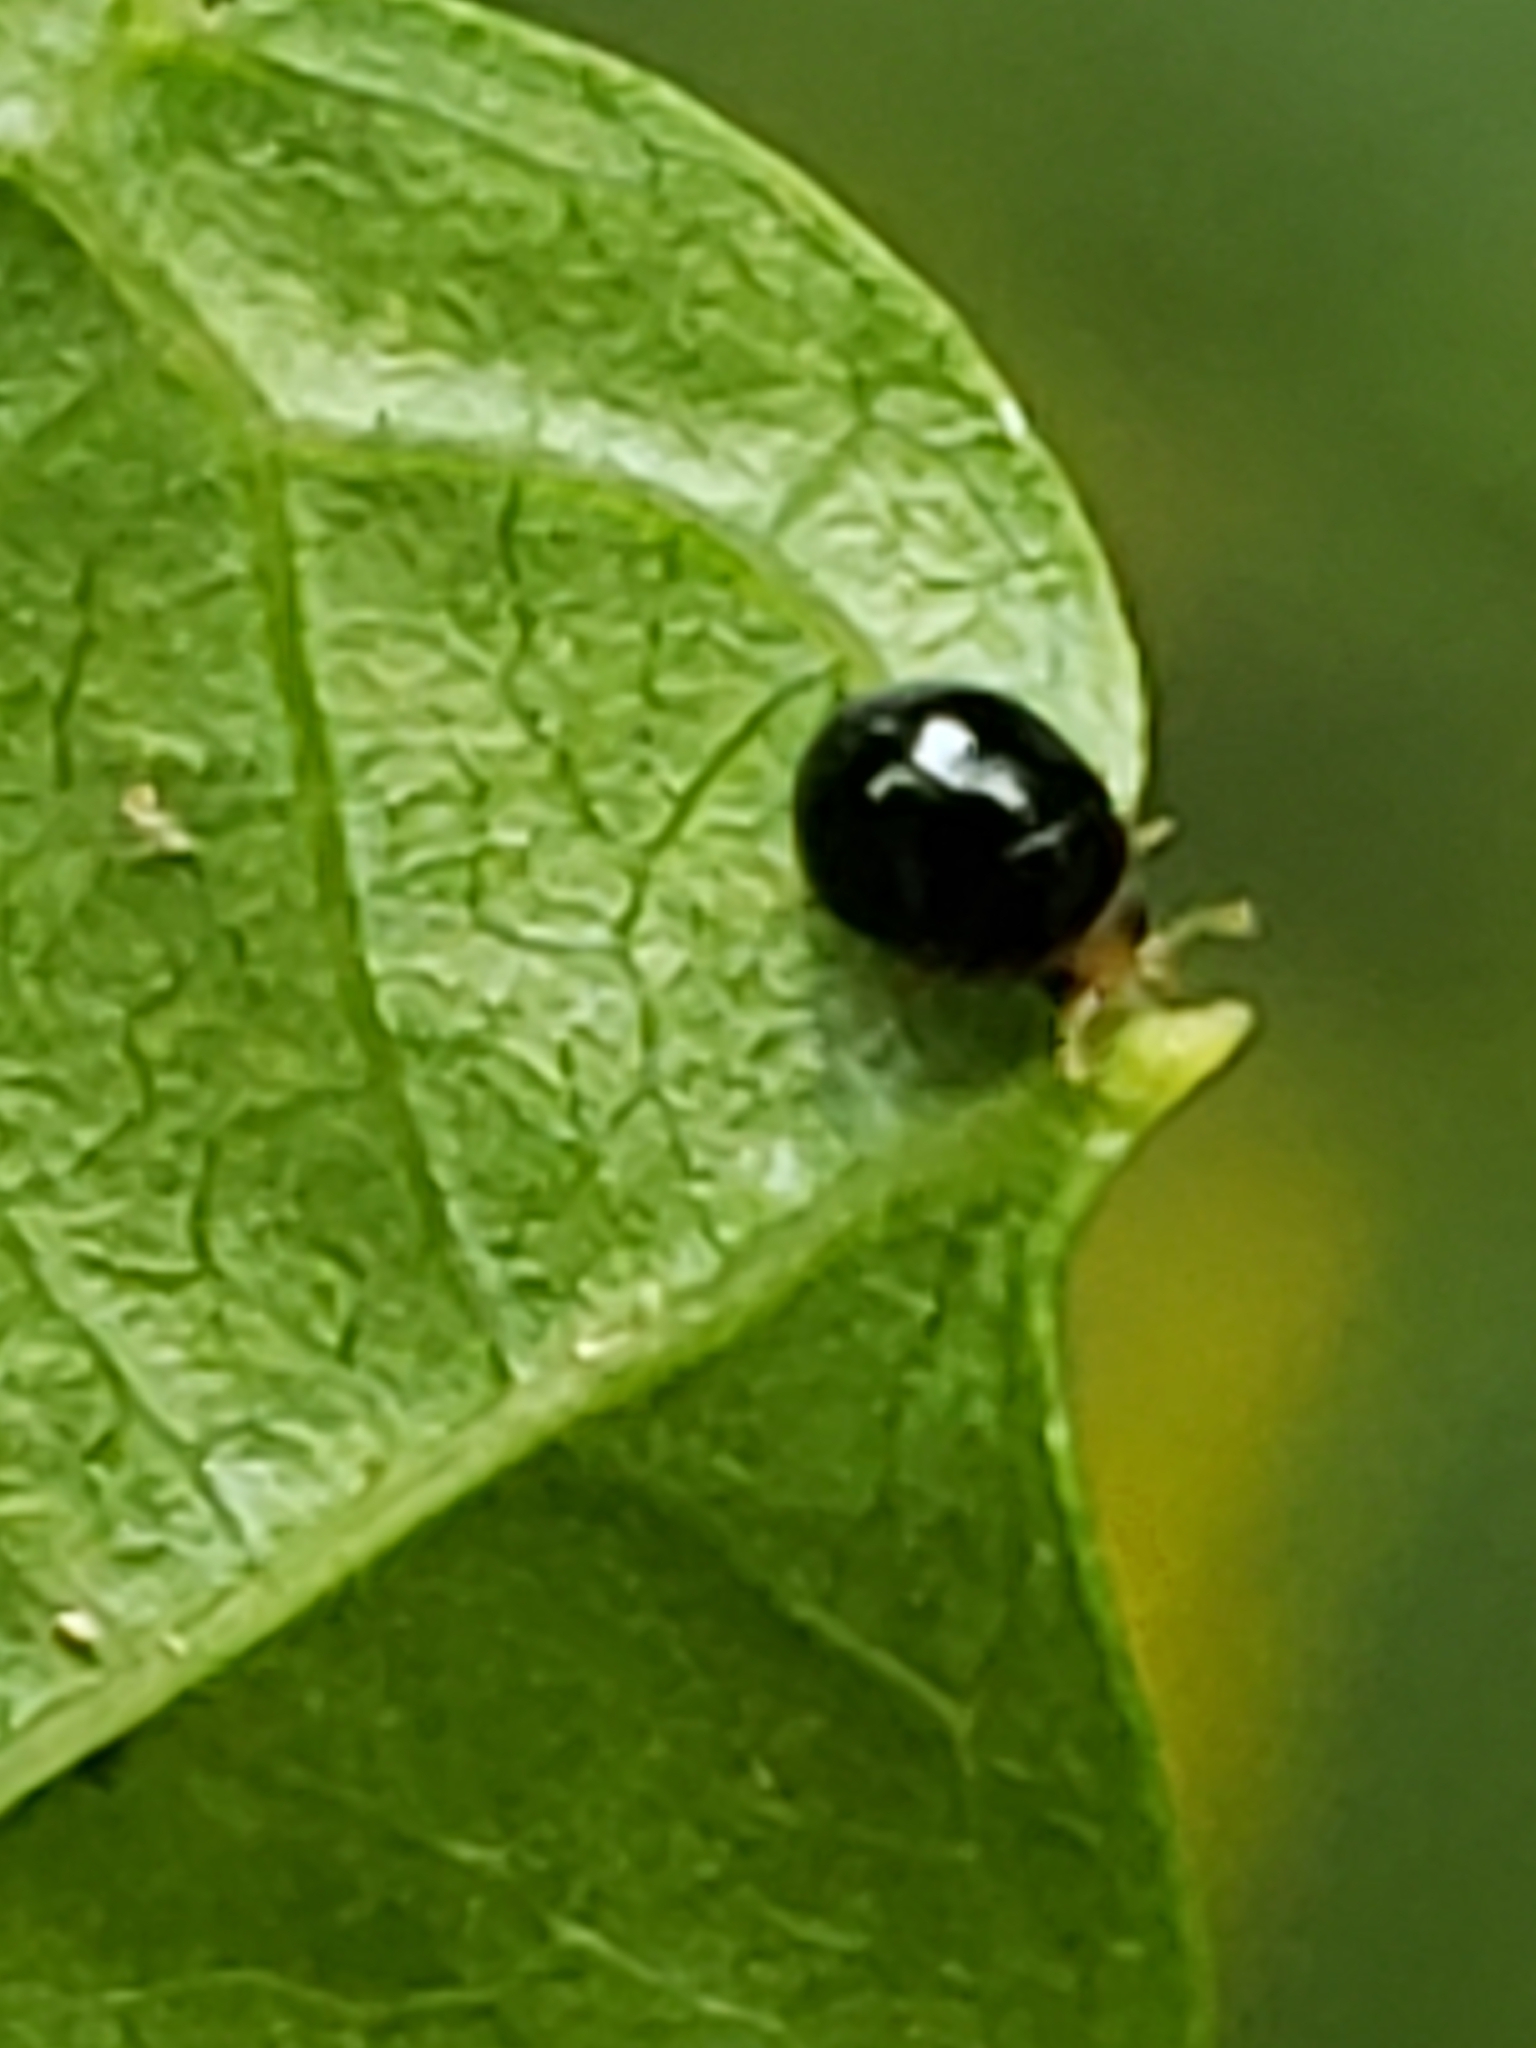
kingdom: Animalia
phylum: Arthropoda
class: Insecta
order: Coleoptera
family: Coccinellidae
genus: Delphastus
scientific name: Delphastus pusillus
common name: Ladybird beetle
